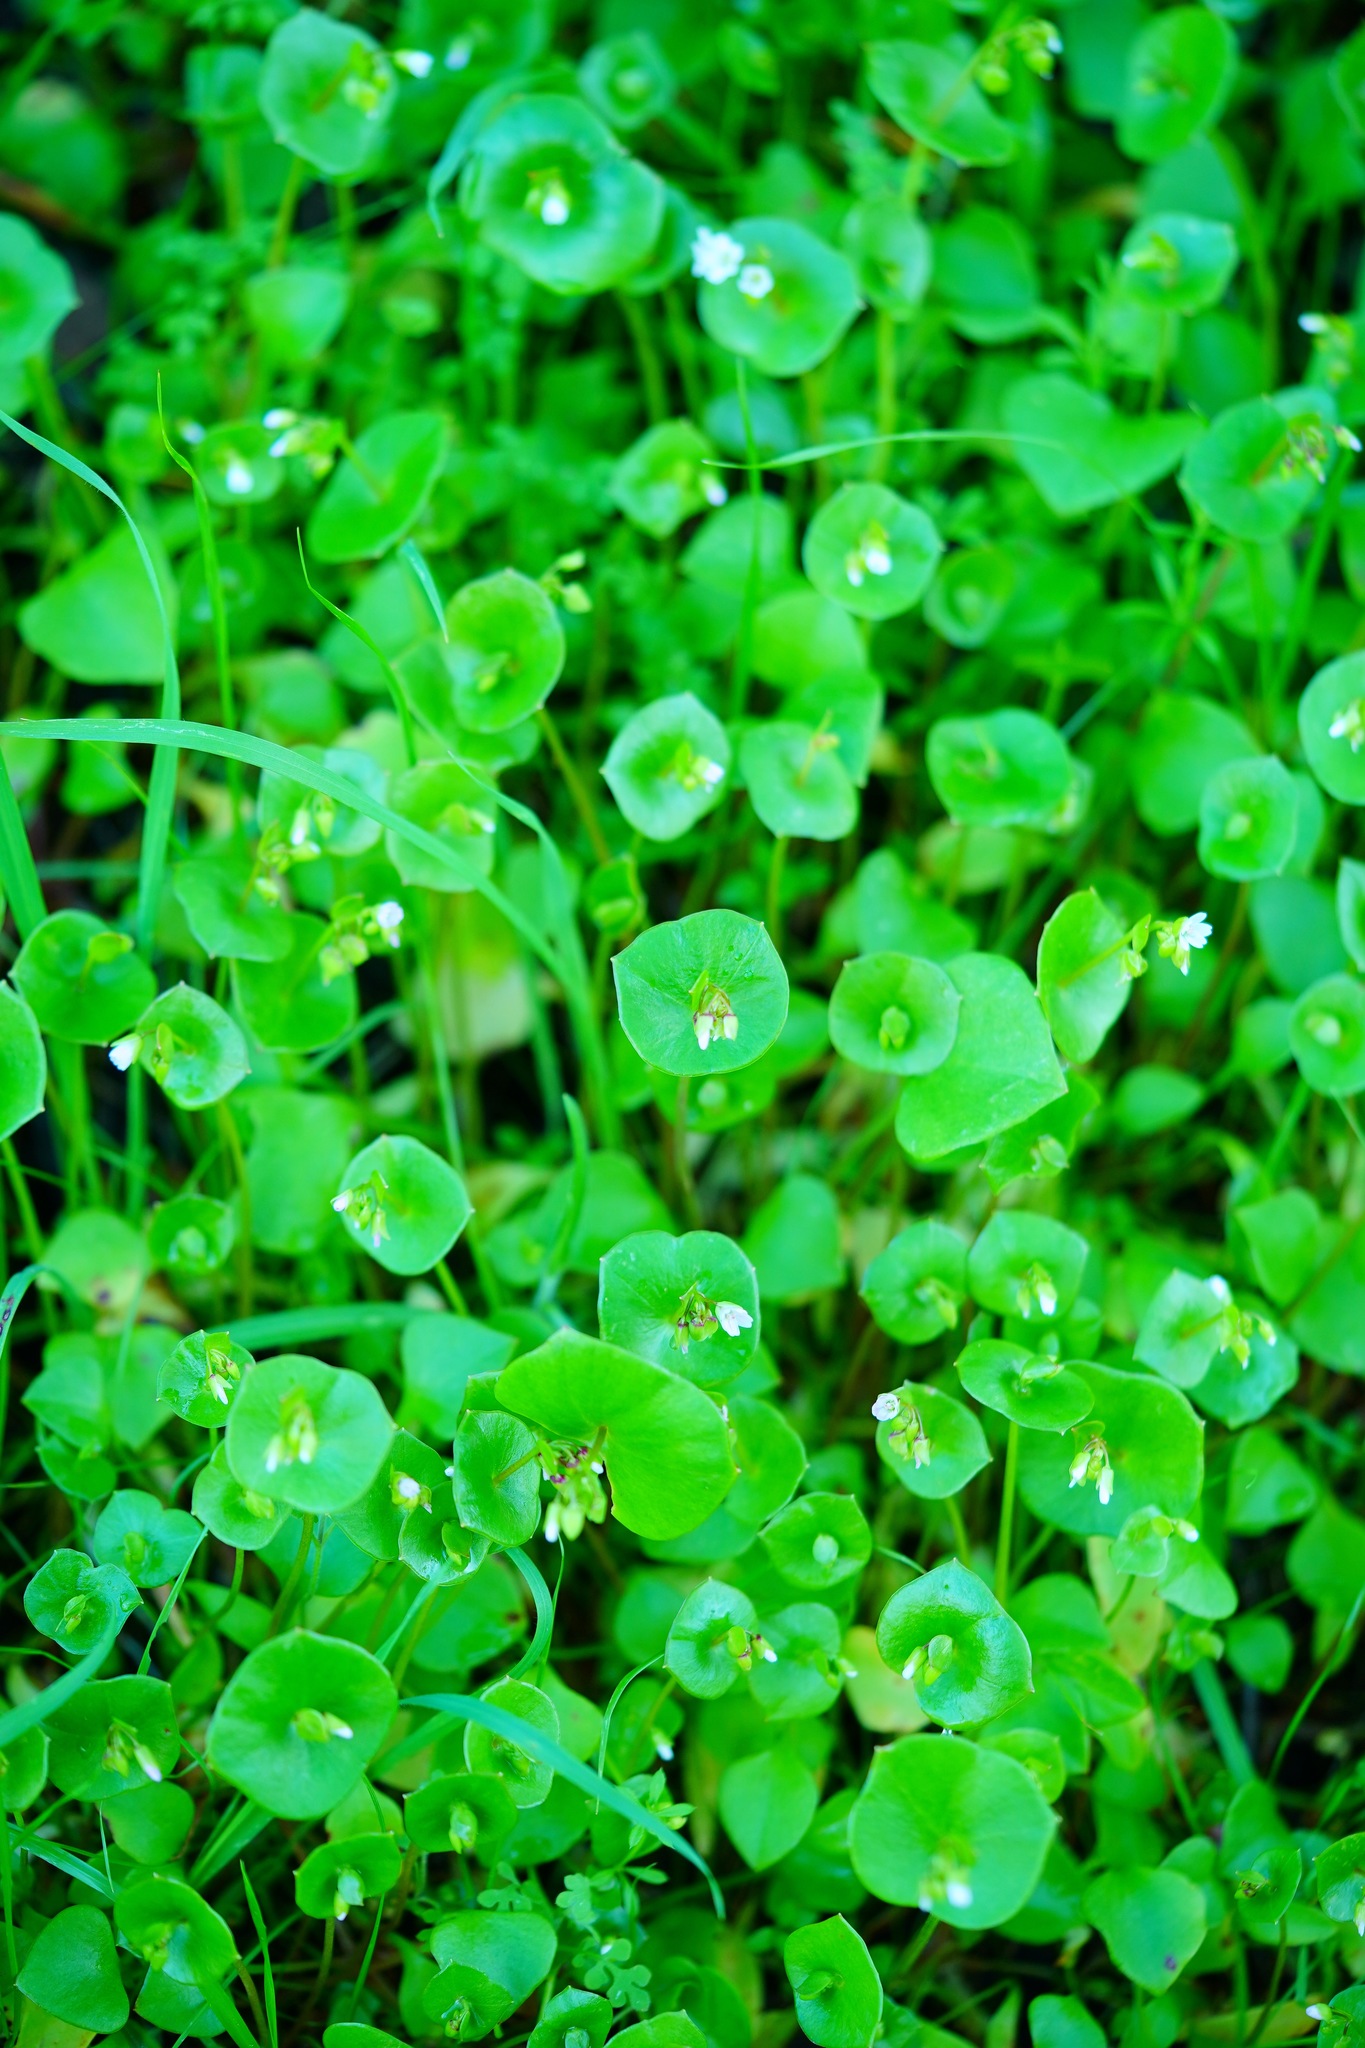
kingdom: Plantae
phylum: Tracheophyta
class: Magnoliopsida
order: Caryophyllales
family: Montiaceae
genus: Claytonia
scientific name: Claytonia perfoliata
